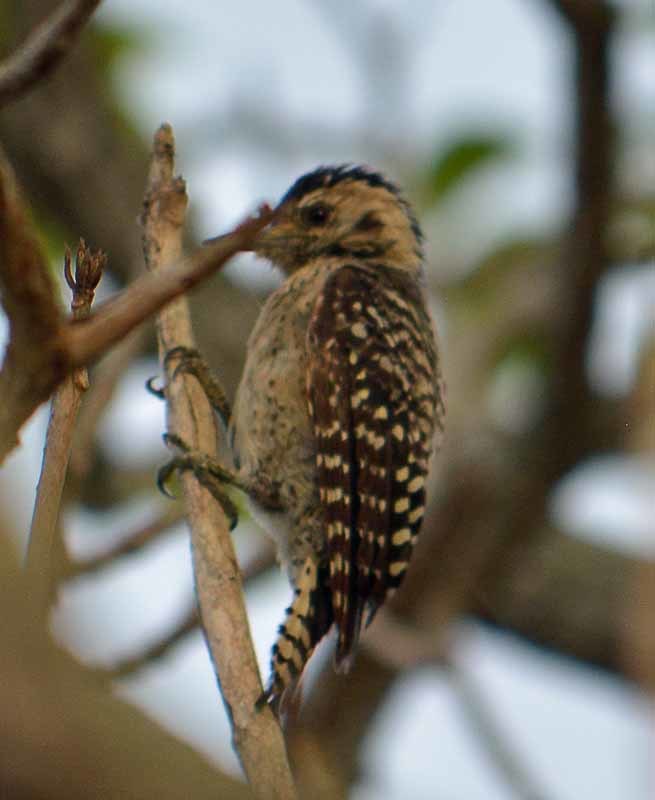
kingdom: Animalia
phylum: Chordata
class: Aves
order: Piciformes
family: Picidae
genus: Dryobates
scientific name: Dryobates scalaris
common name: Ladder-backed woodpecker
